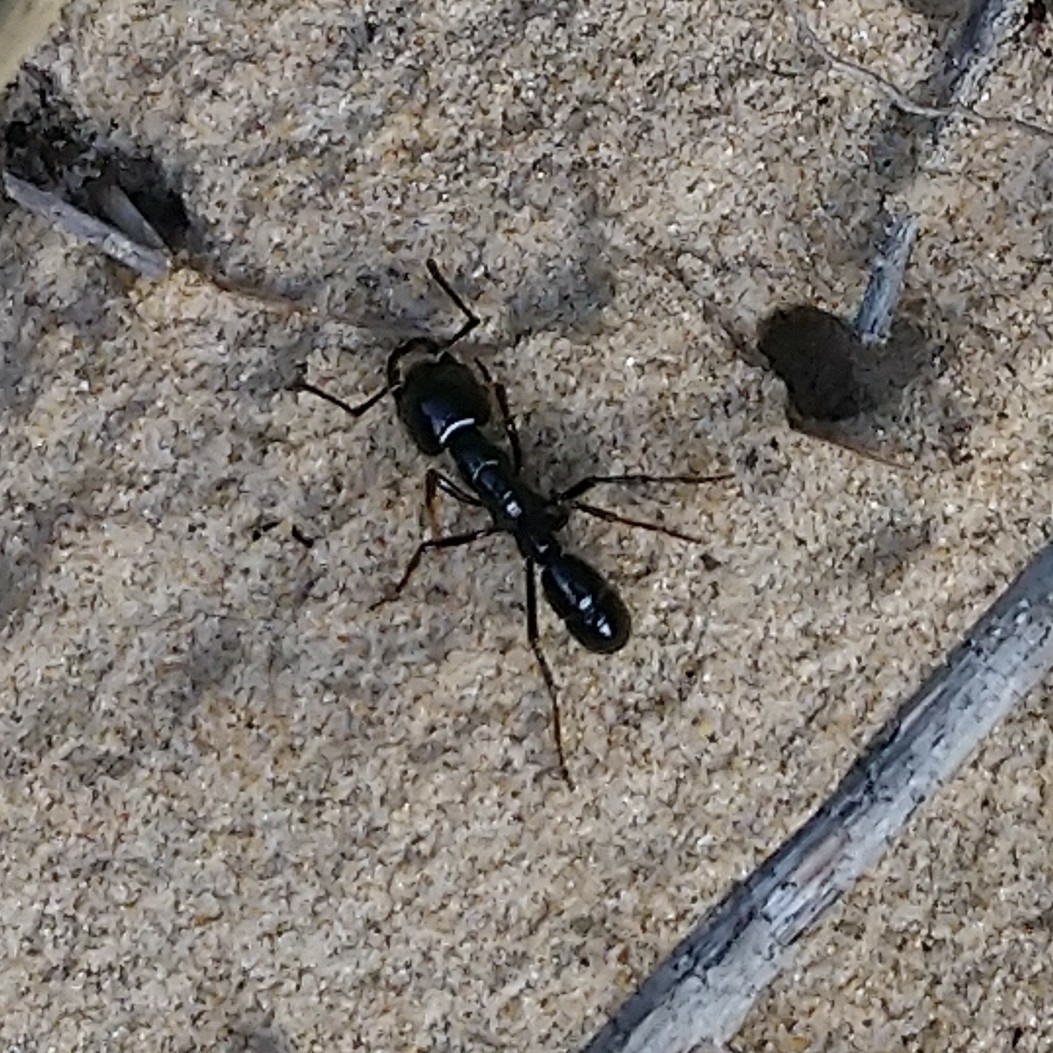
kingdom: Animalia
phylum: Arthropoda
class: Insecta
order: Hymenoptera
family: Formicidae
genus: Plectroctena
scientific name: Plectroctena mandibularis
